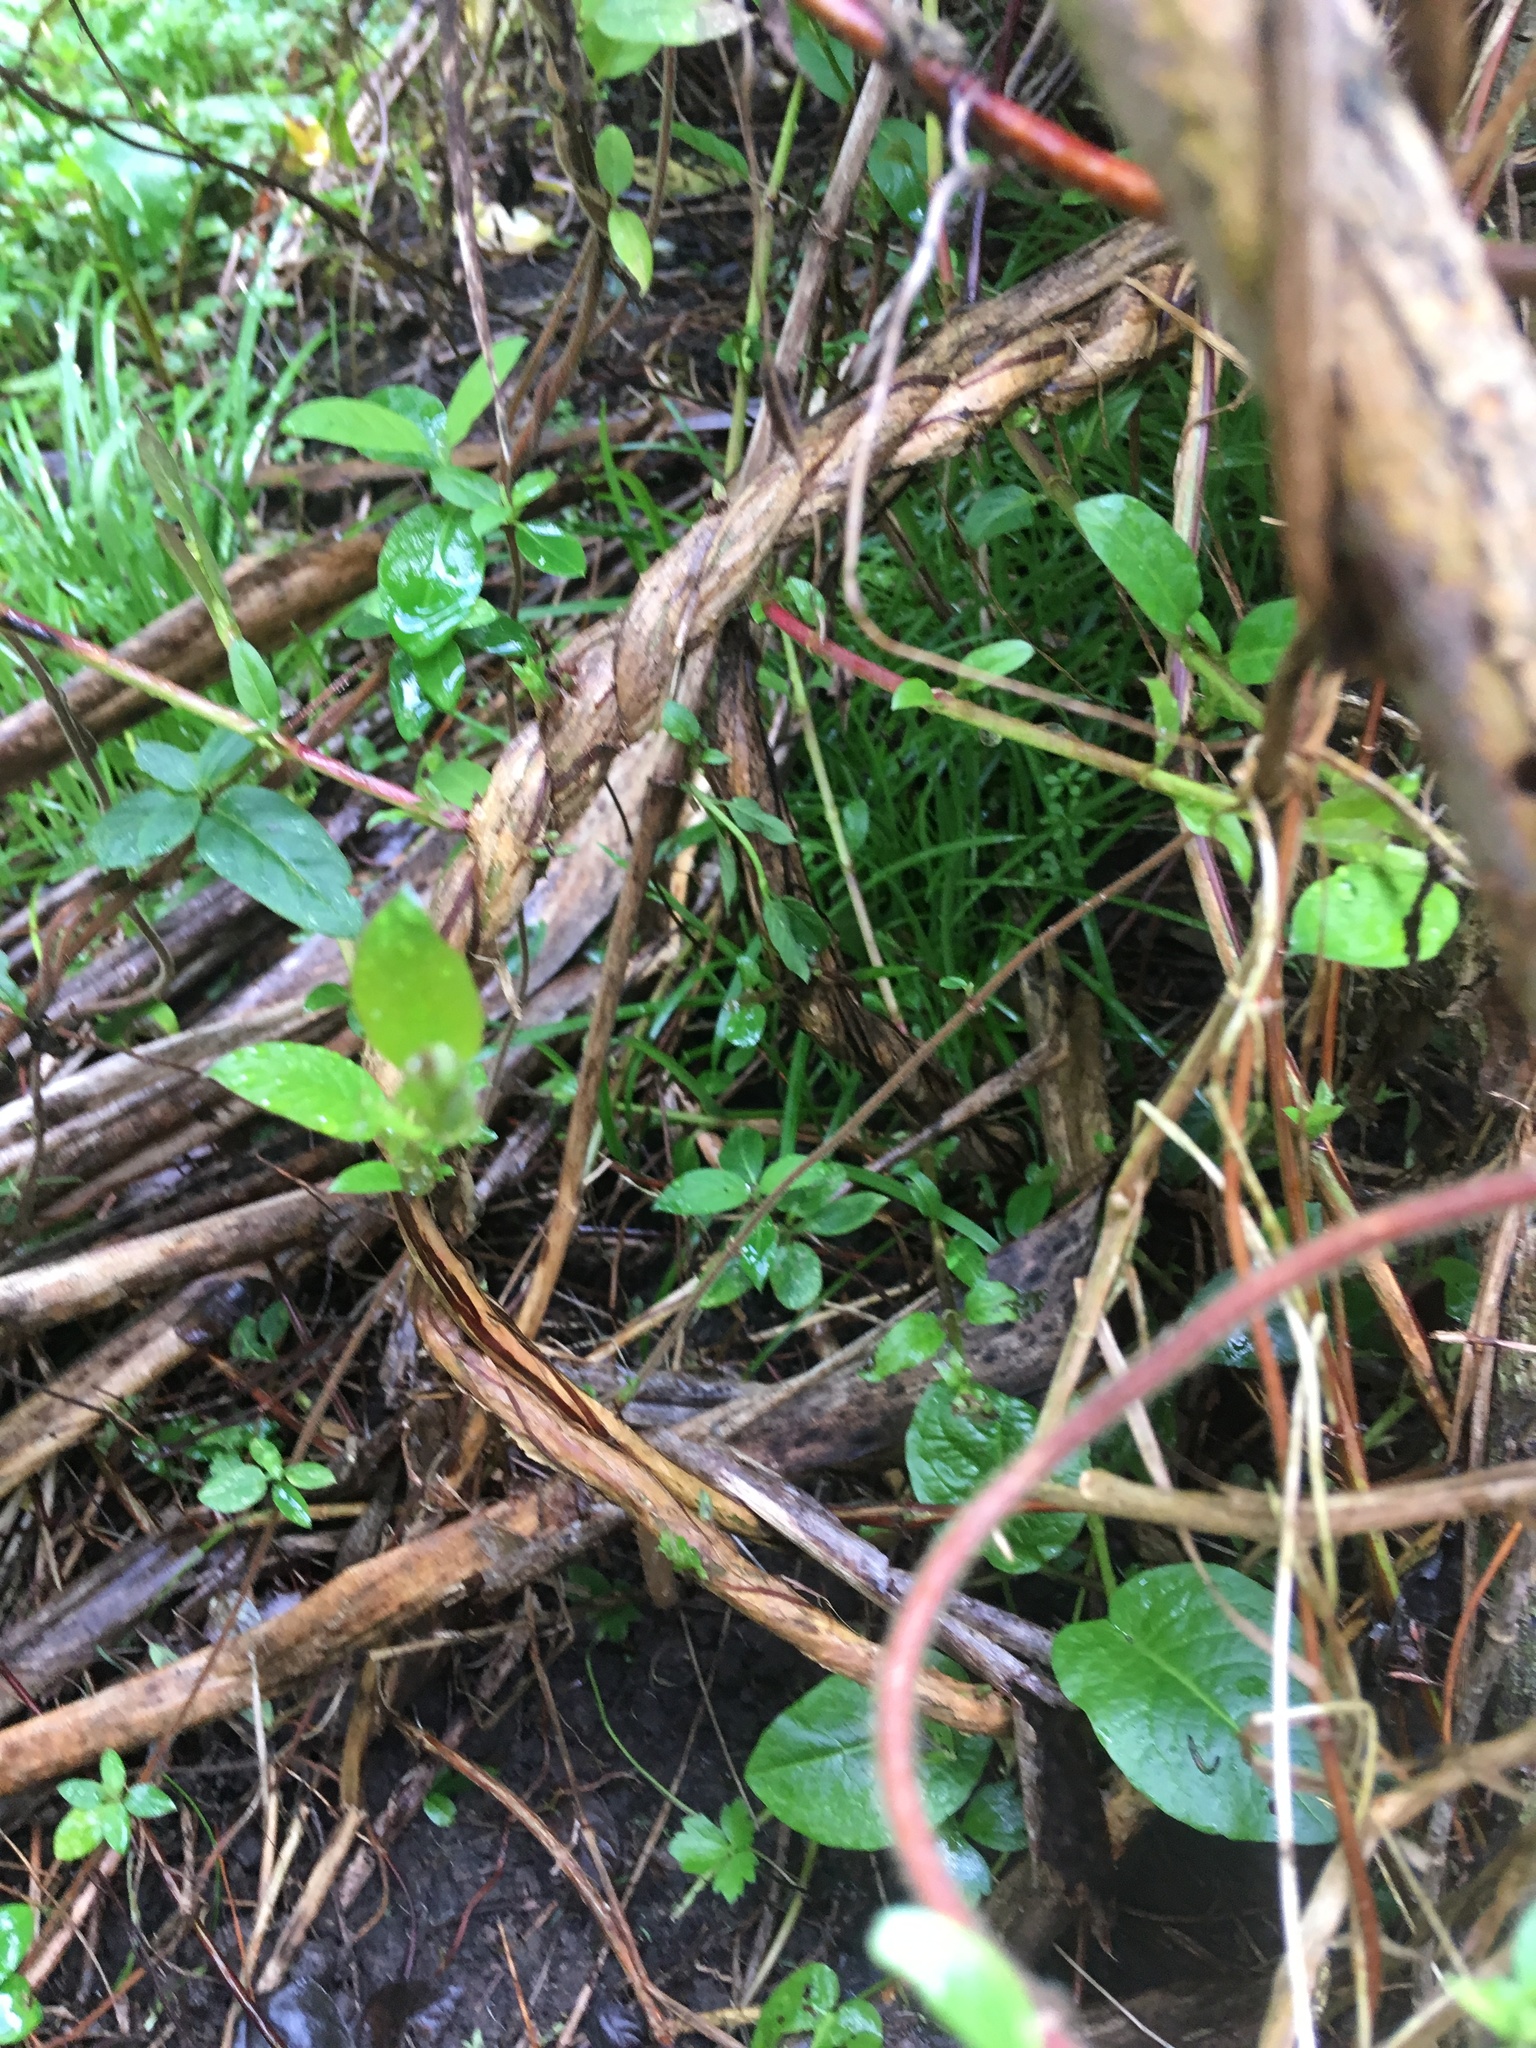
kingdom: Plantae
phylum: Tracheophyta
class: Magnoliopsida
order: Dipsacales
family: Caprifoliaceae
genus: Lonicera
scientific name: Lonicera japonica
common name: Japanese honeysuckle
